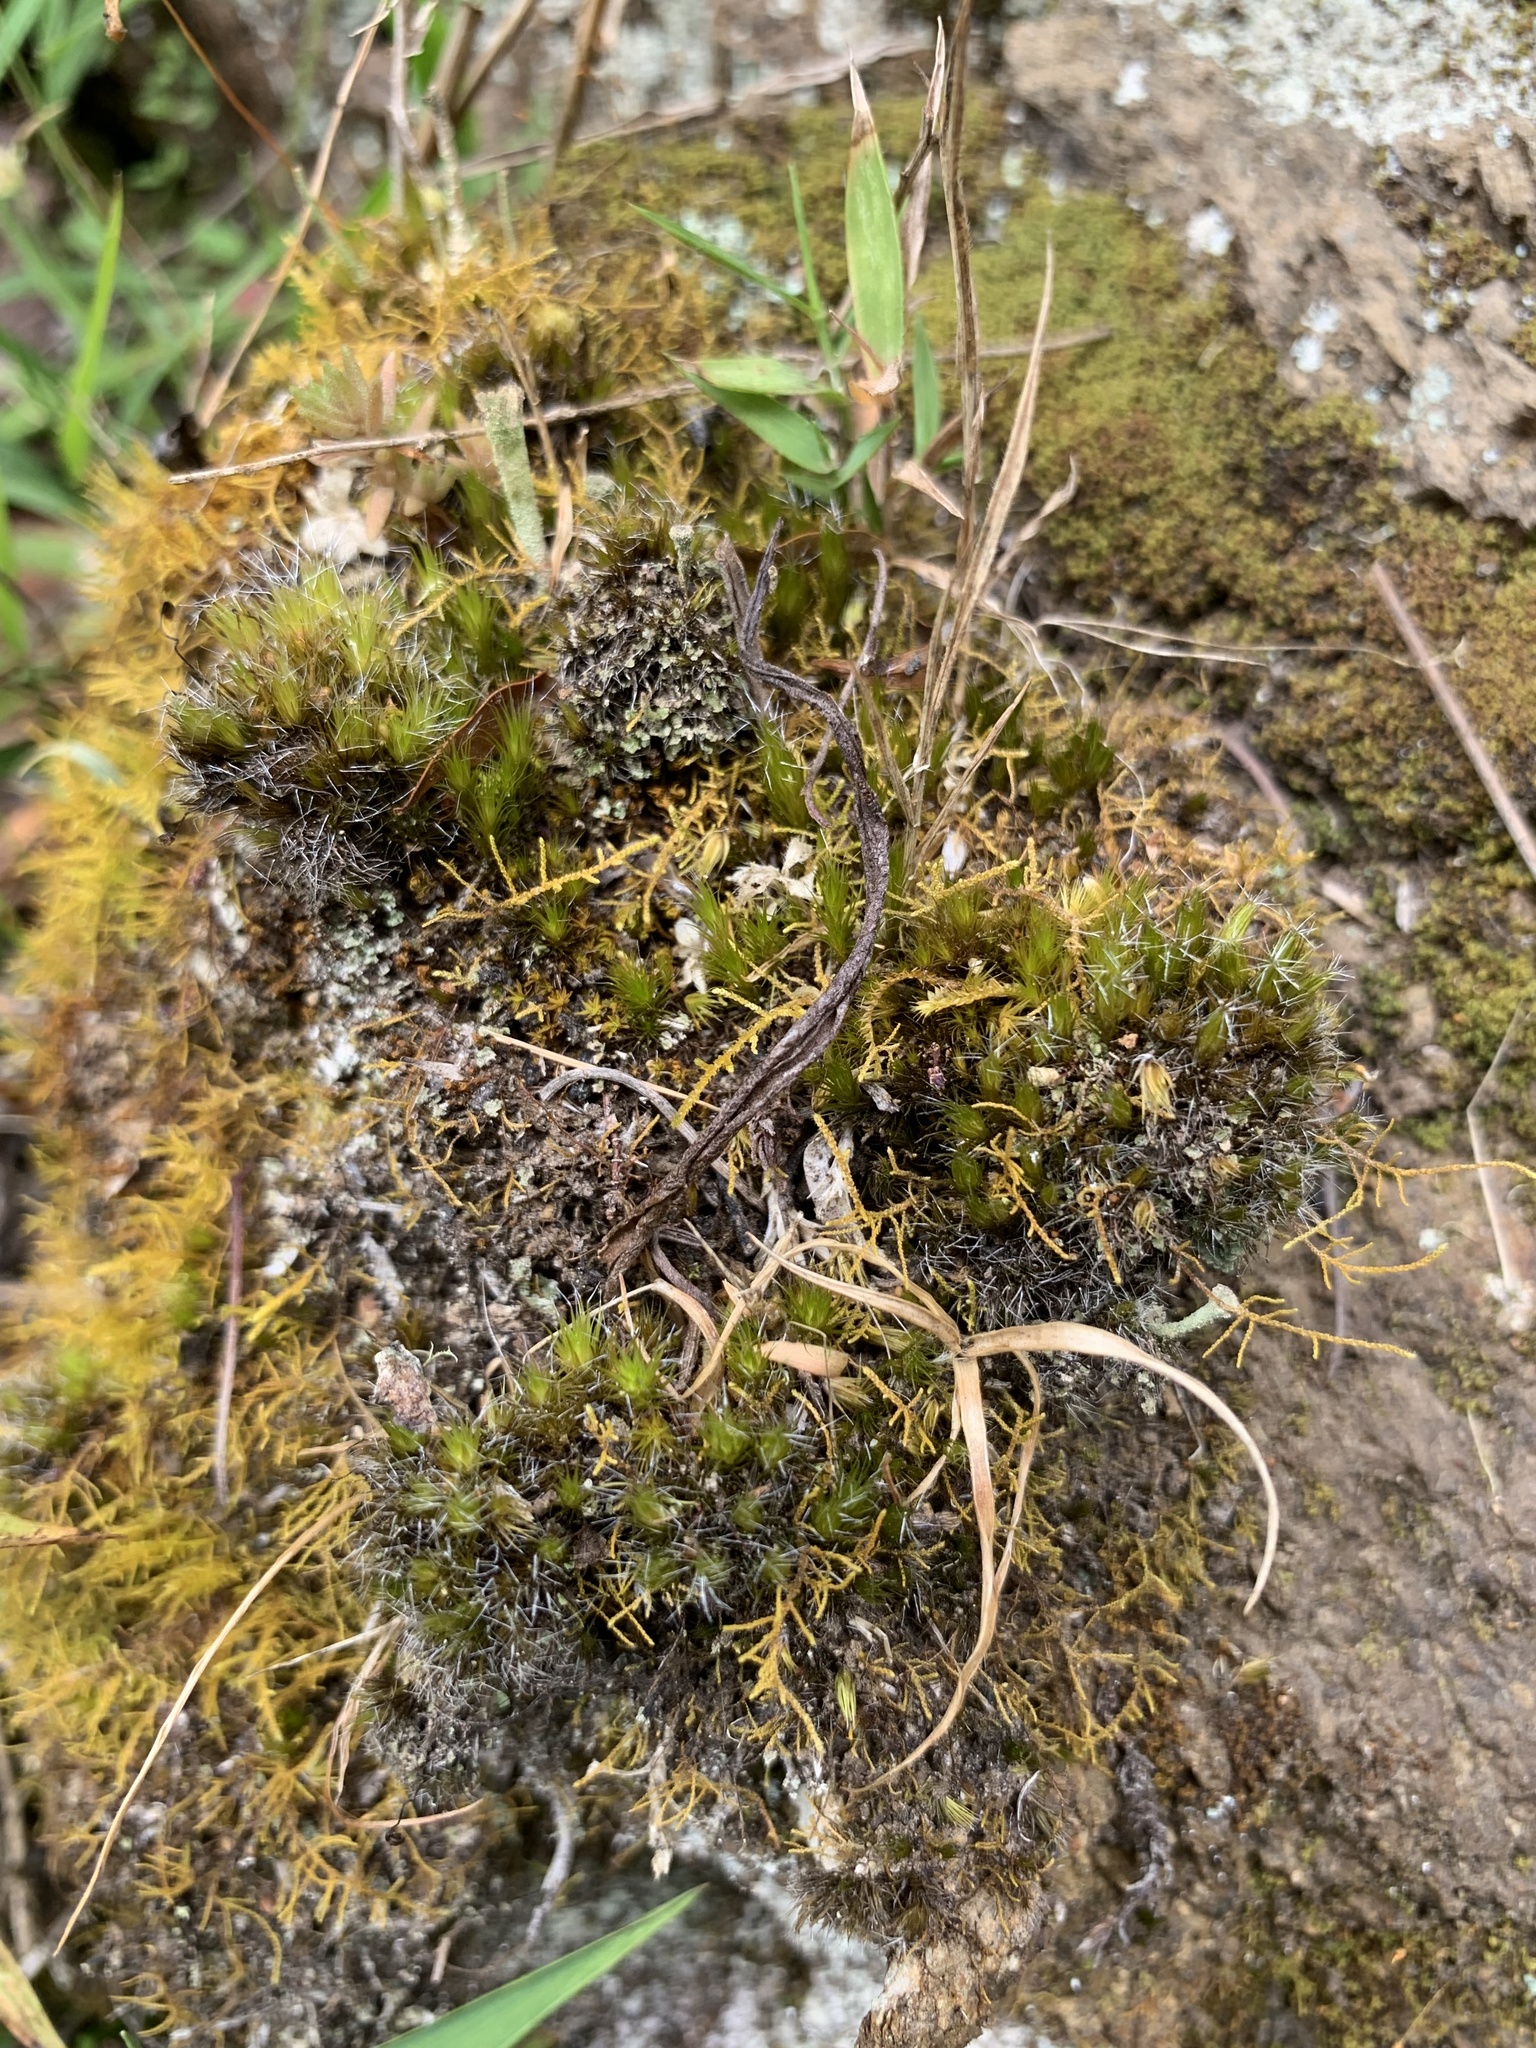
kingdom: Plantae
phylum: Bryophyta
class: Bryopsida
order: Dicranales
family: Leucobryaceae
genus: Campylopus
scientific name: Campylopus introflexus
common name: Heath star moss
